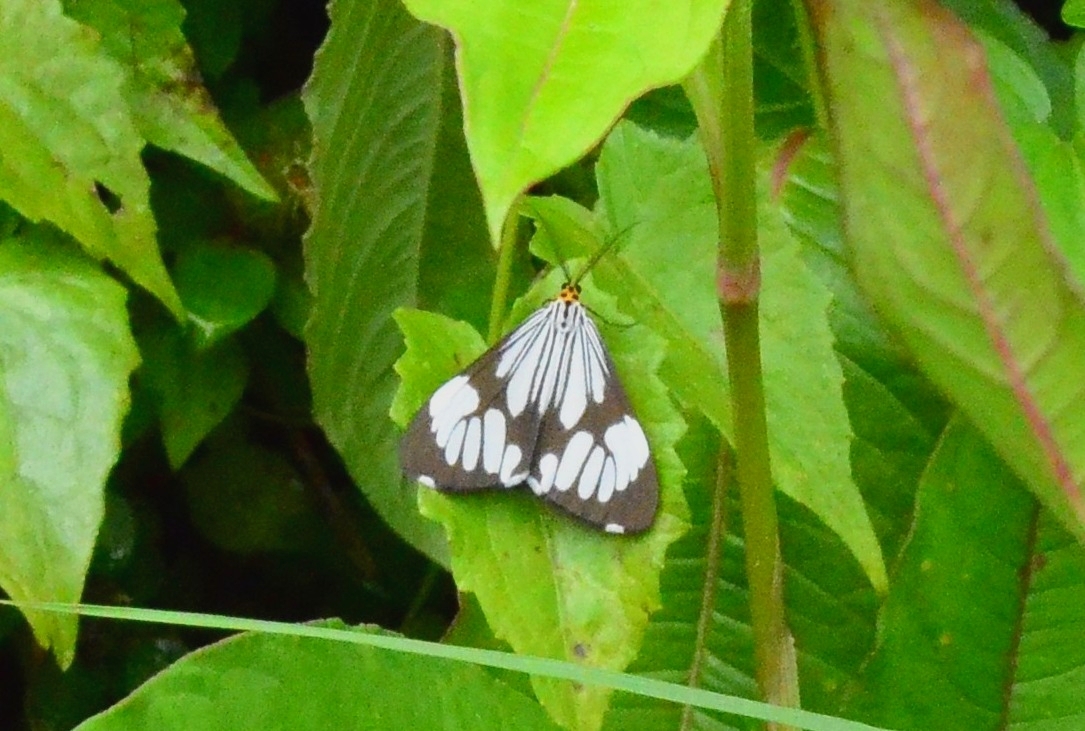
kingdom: Animalia
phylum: Arthropoda
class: Insecta
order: Lepidoptera
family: Erebidae
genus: Nyctemera
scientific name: Nyctemera coleta
